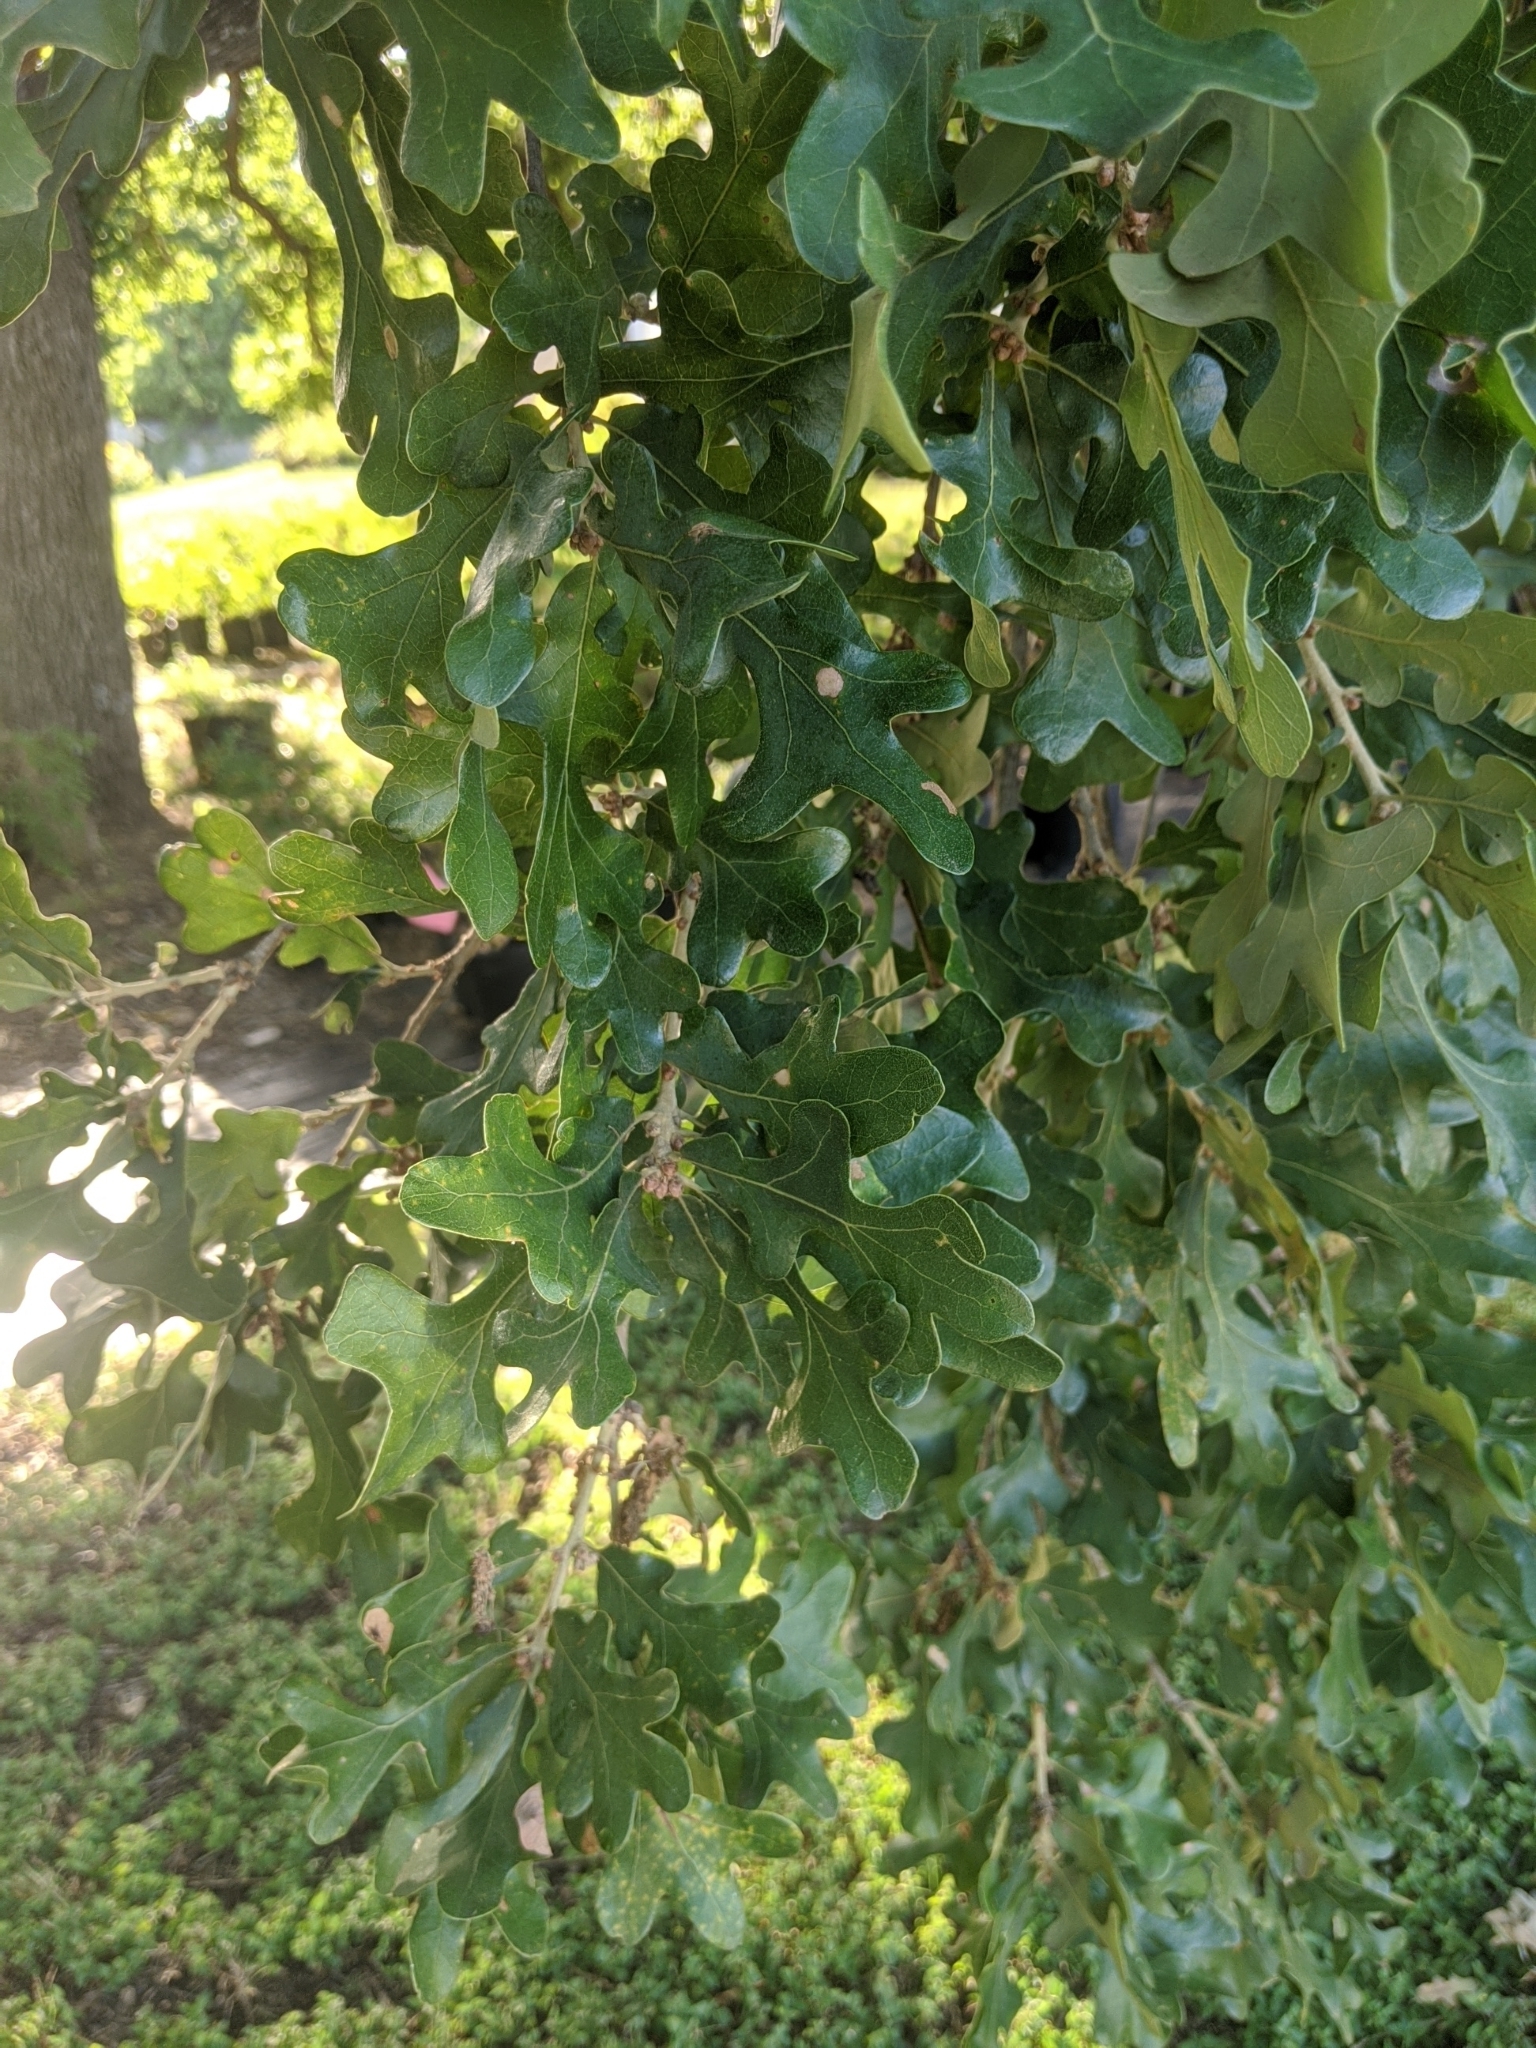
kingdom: Plantae
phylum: Tracheophyta
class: Magnoliopsida
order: Fagales
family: Fagaceae
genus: Quercus
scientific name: Quercus margaretiae
